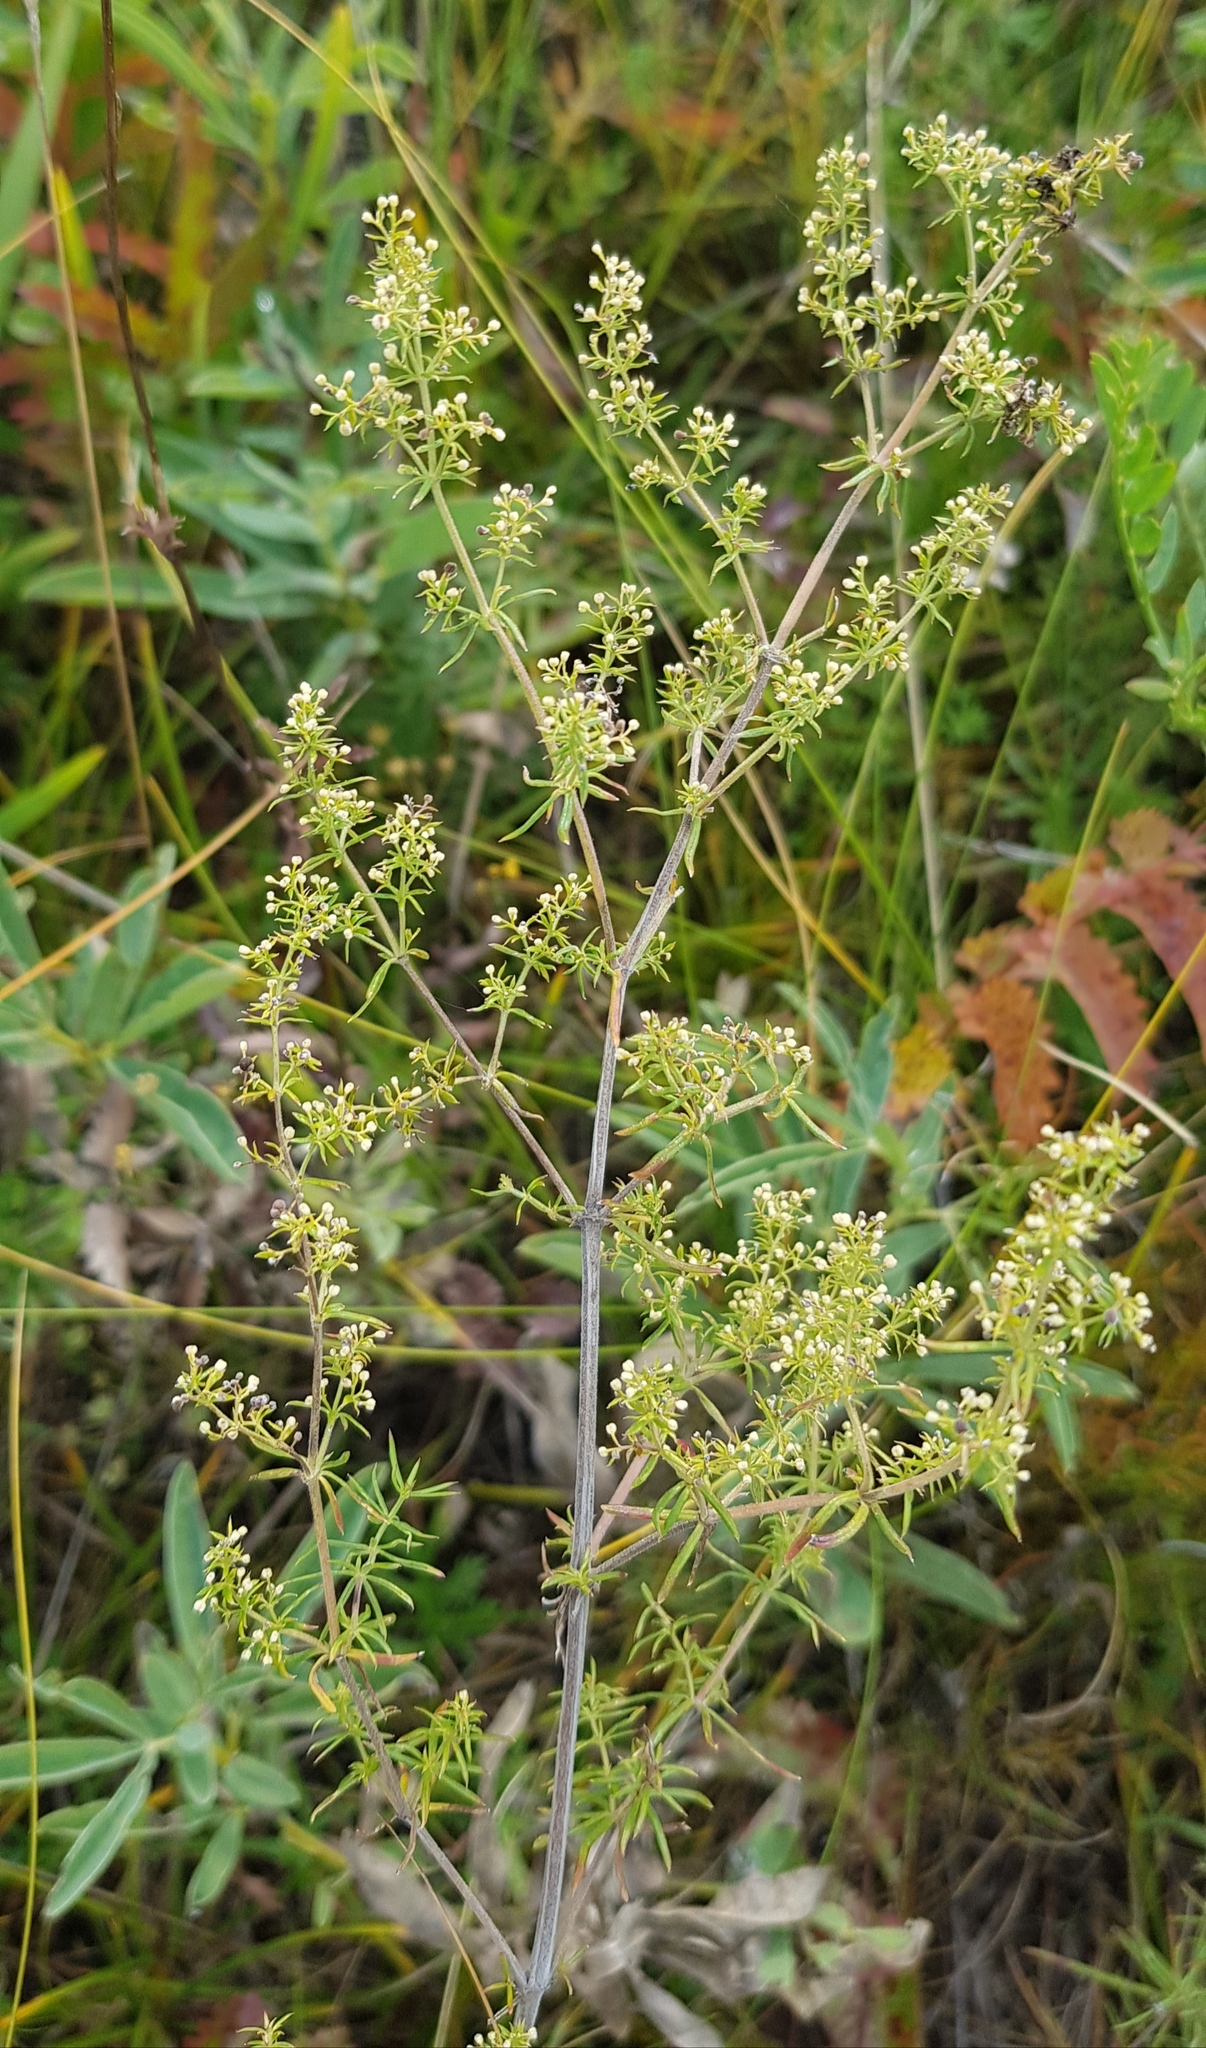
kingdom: Plantae
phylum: Tracheophyta
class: Magnoliopsida
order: Gentianales
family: Rubiaceae
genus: Galium
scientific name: Galium mollugo
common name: Hedge bedstraw
